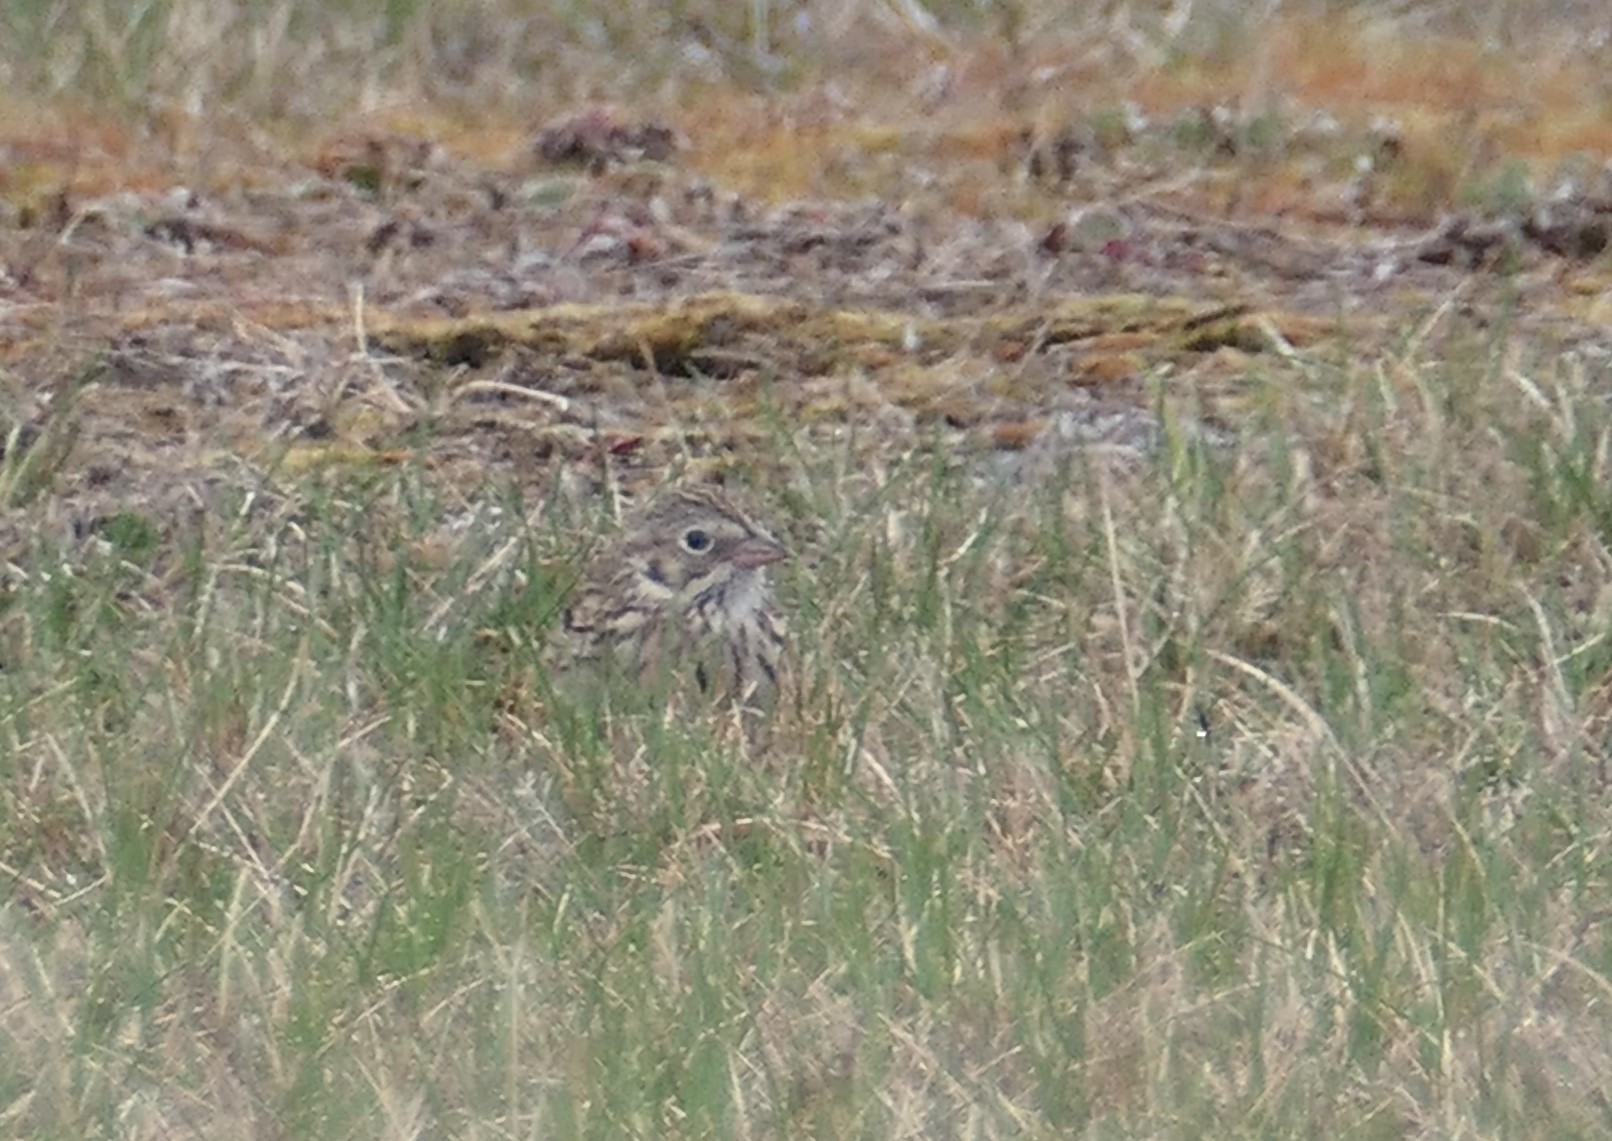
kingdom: Animalia
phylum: Chordata
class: Aves
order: Passeriformes
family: Passerellidae
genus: Pooecetes
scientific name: Pooecetes gramineus
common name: Vesper sparrow
